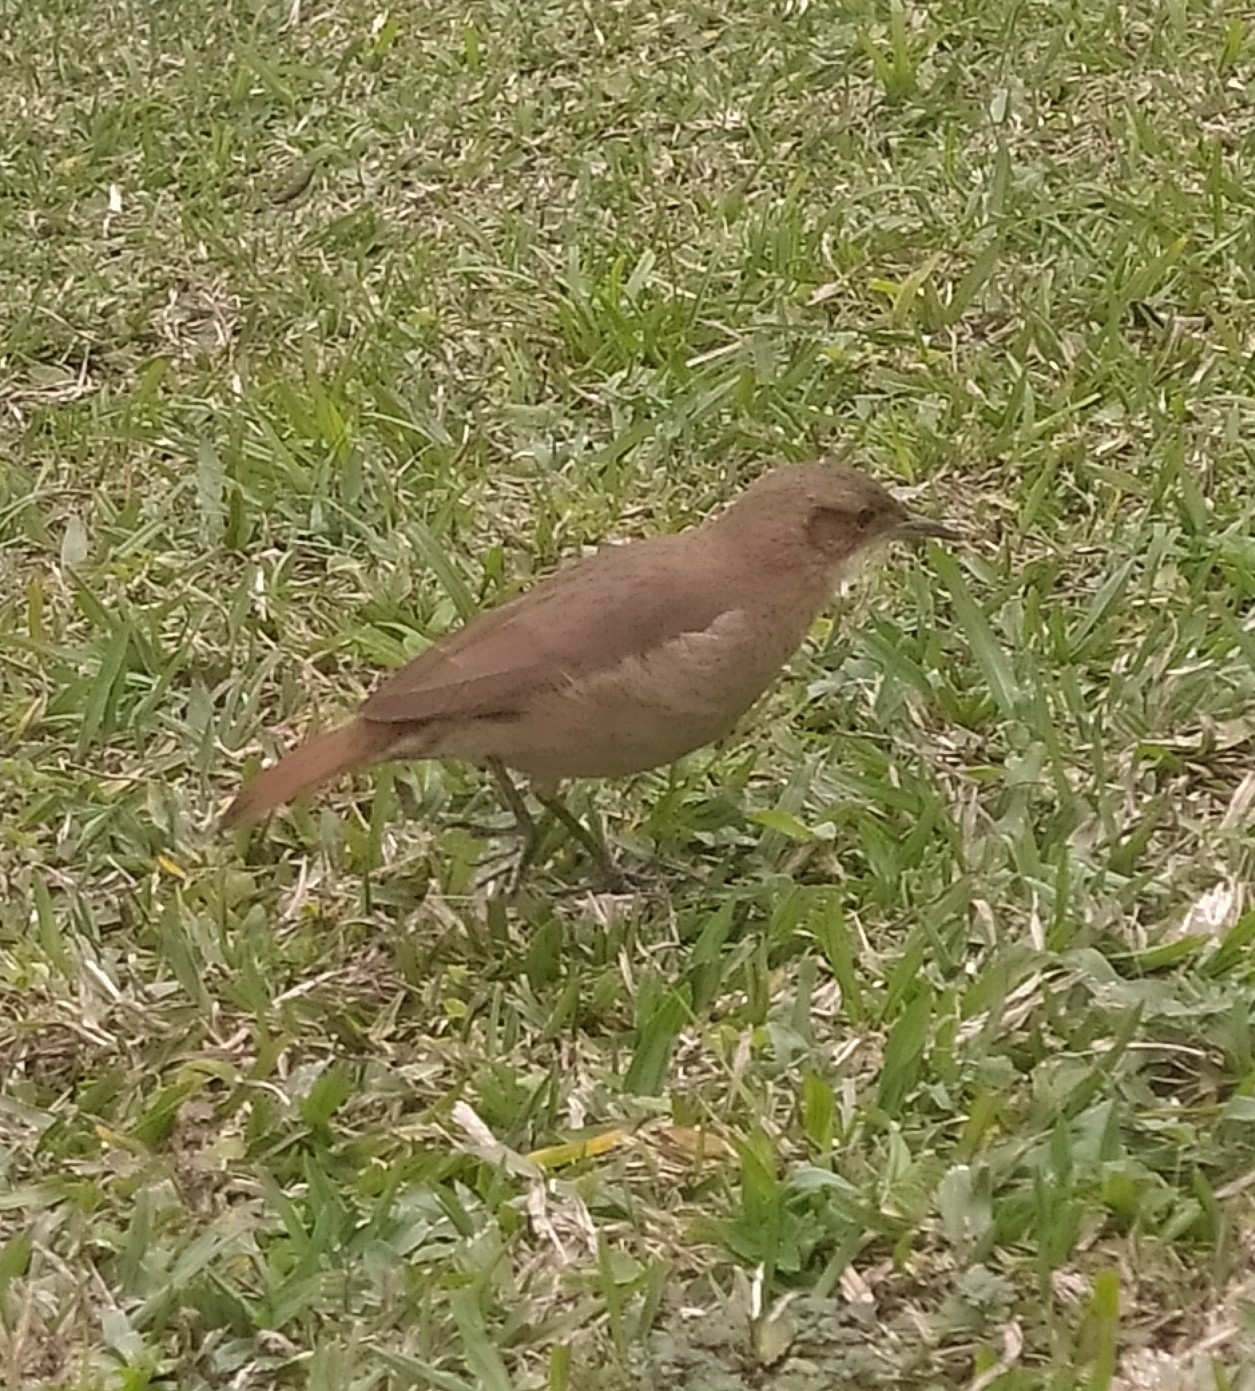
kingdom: Animalia
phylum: Chordata
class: Aves
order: Passeriformes
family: Furnariidae
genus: Furnarius
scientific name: Furnarius rufus
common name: Rufous hornero
